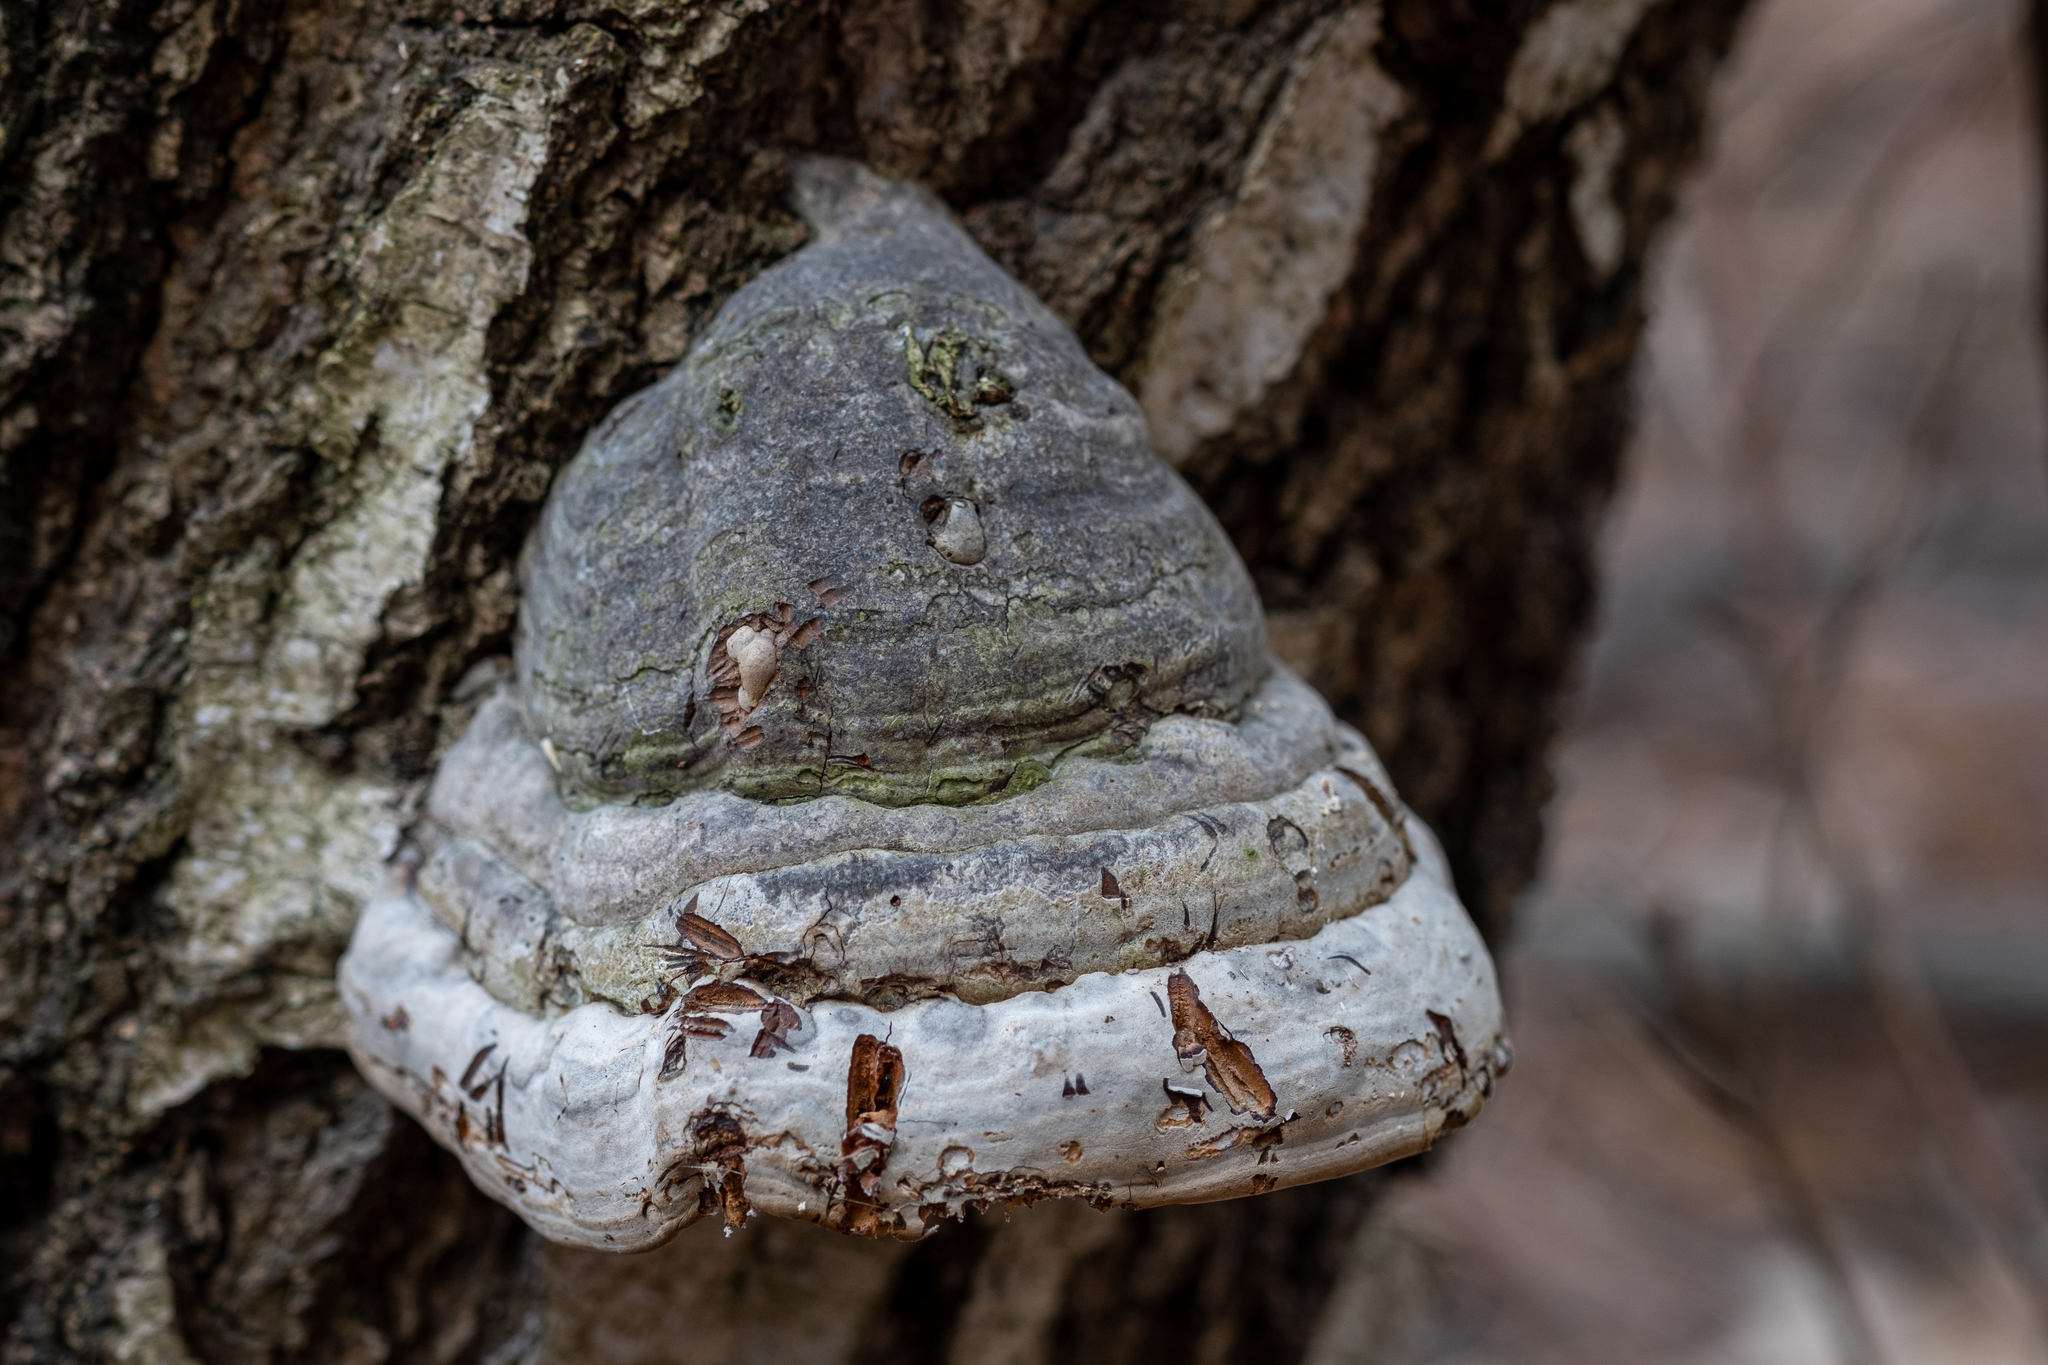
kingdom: Fungi
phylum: Basidiomycota
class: Agaricomycetes
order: Polyporales
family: Polyporaceae
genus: Fomes
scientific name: Fomes fomentarius
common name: Hoof fungus
